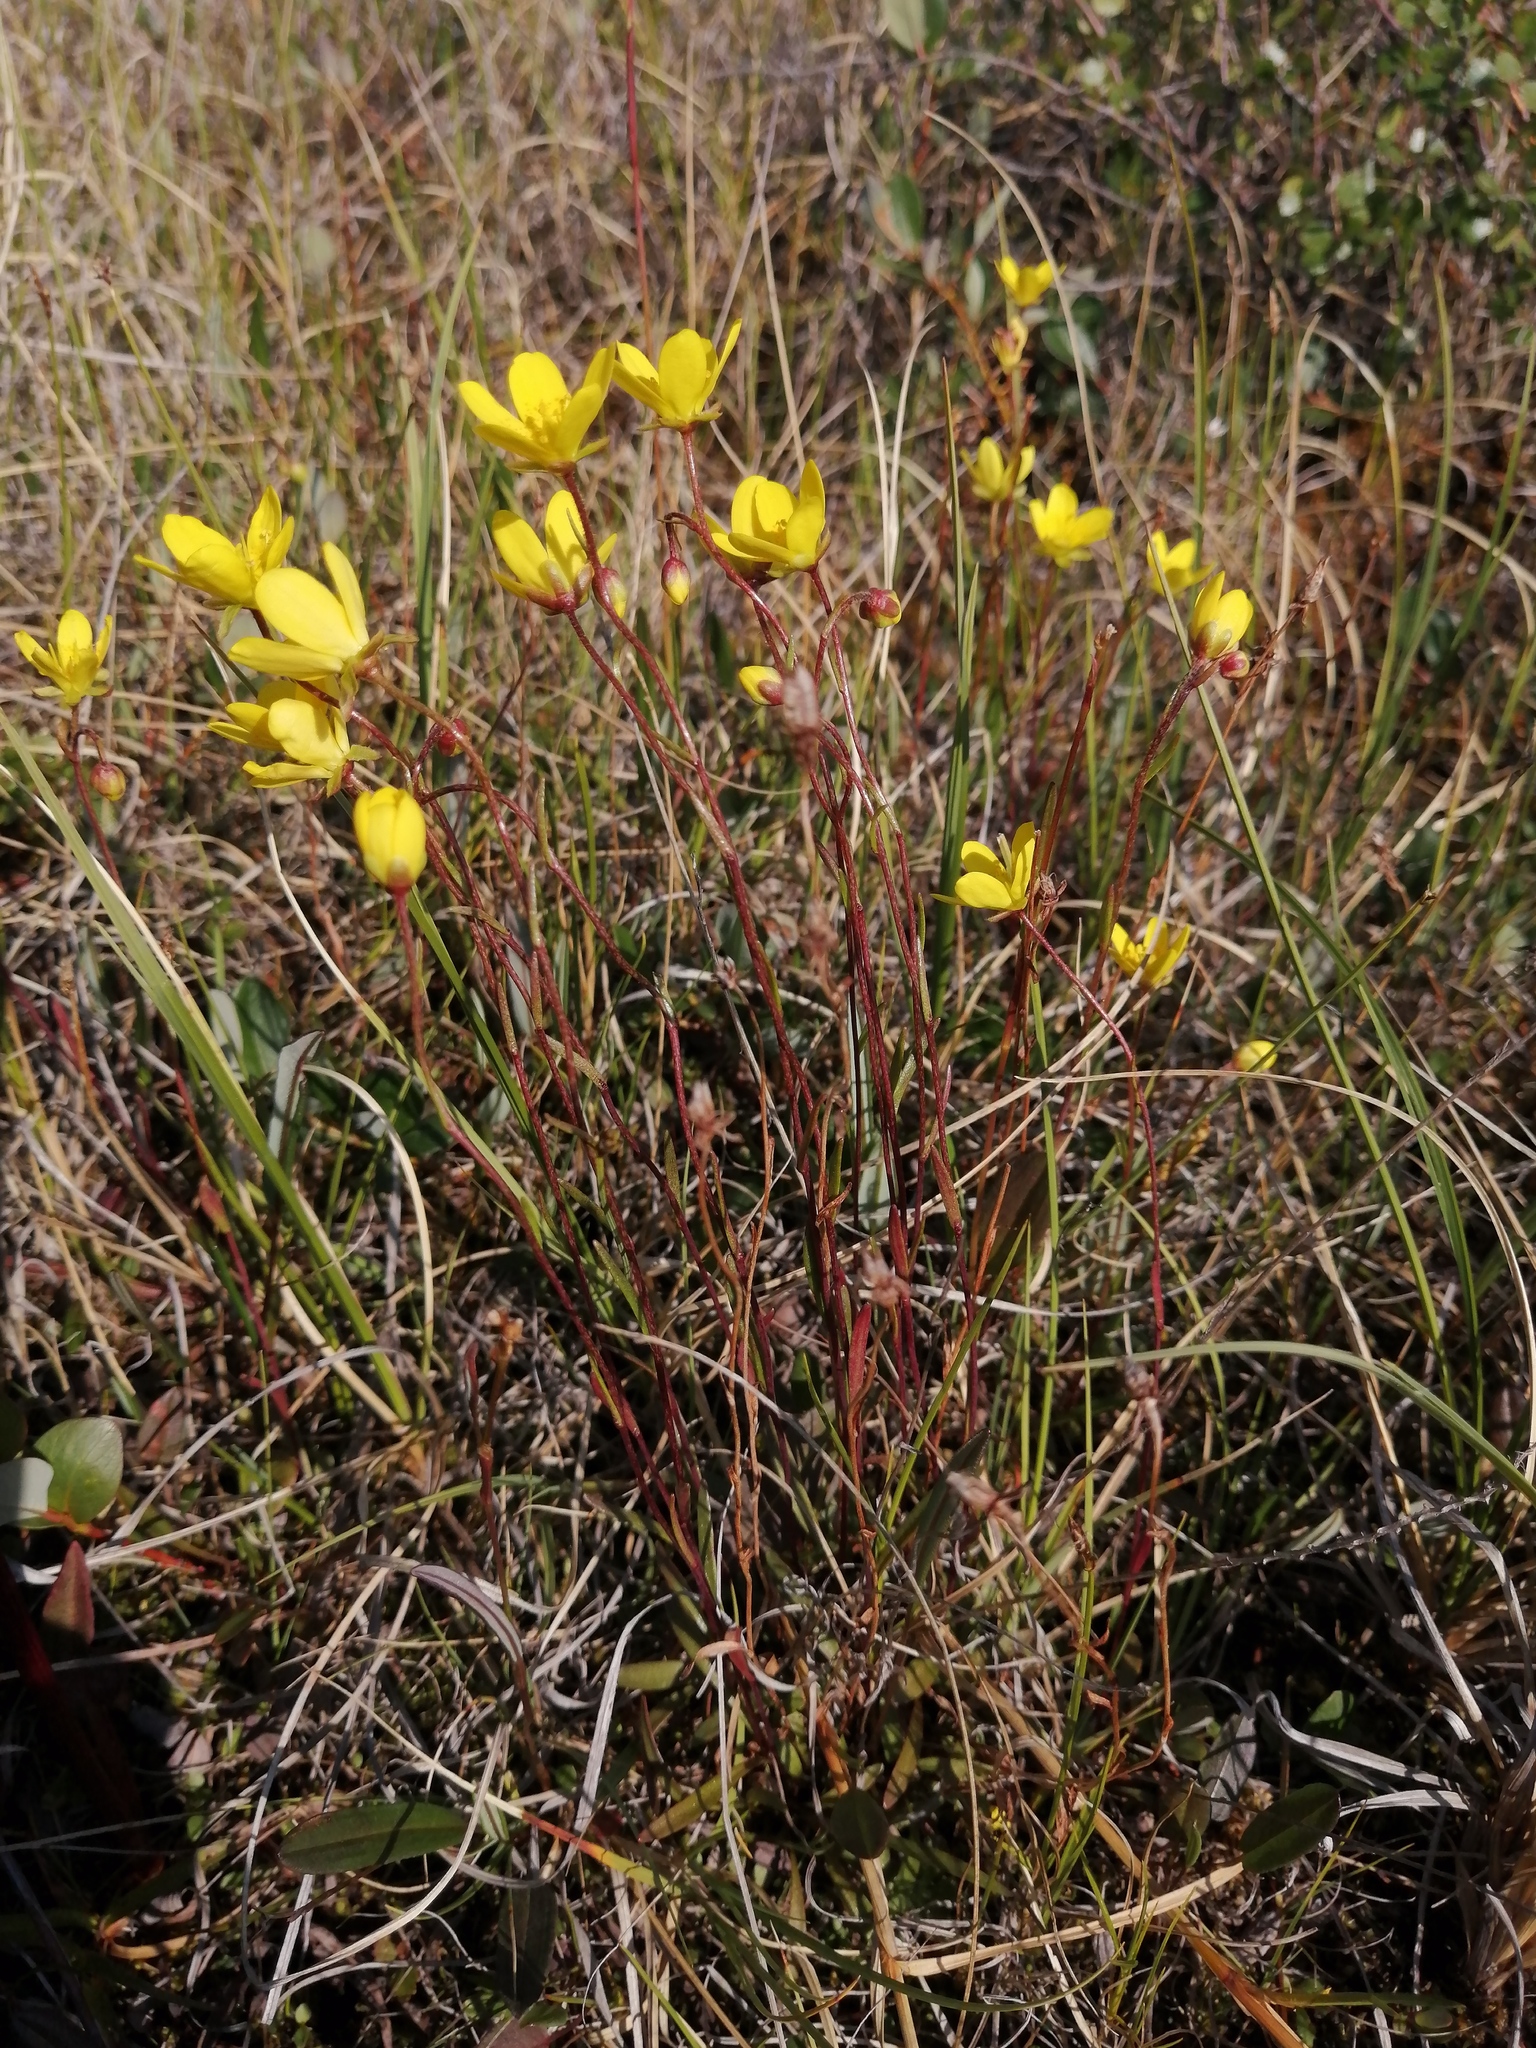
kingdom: Plantae
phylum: Tracheophyta
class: Magnoliopsida
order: Saxifragales
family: Saxifragaceae
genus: Saxifraga
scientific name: Saxifraga hirculus
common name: Yellow marsh saxifrage
